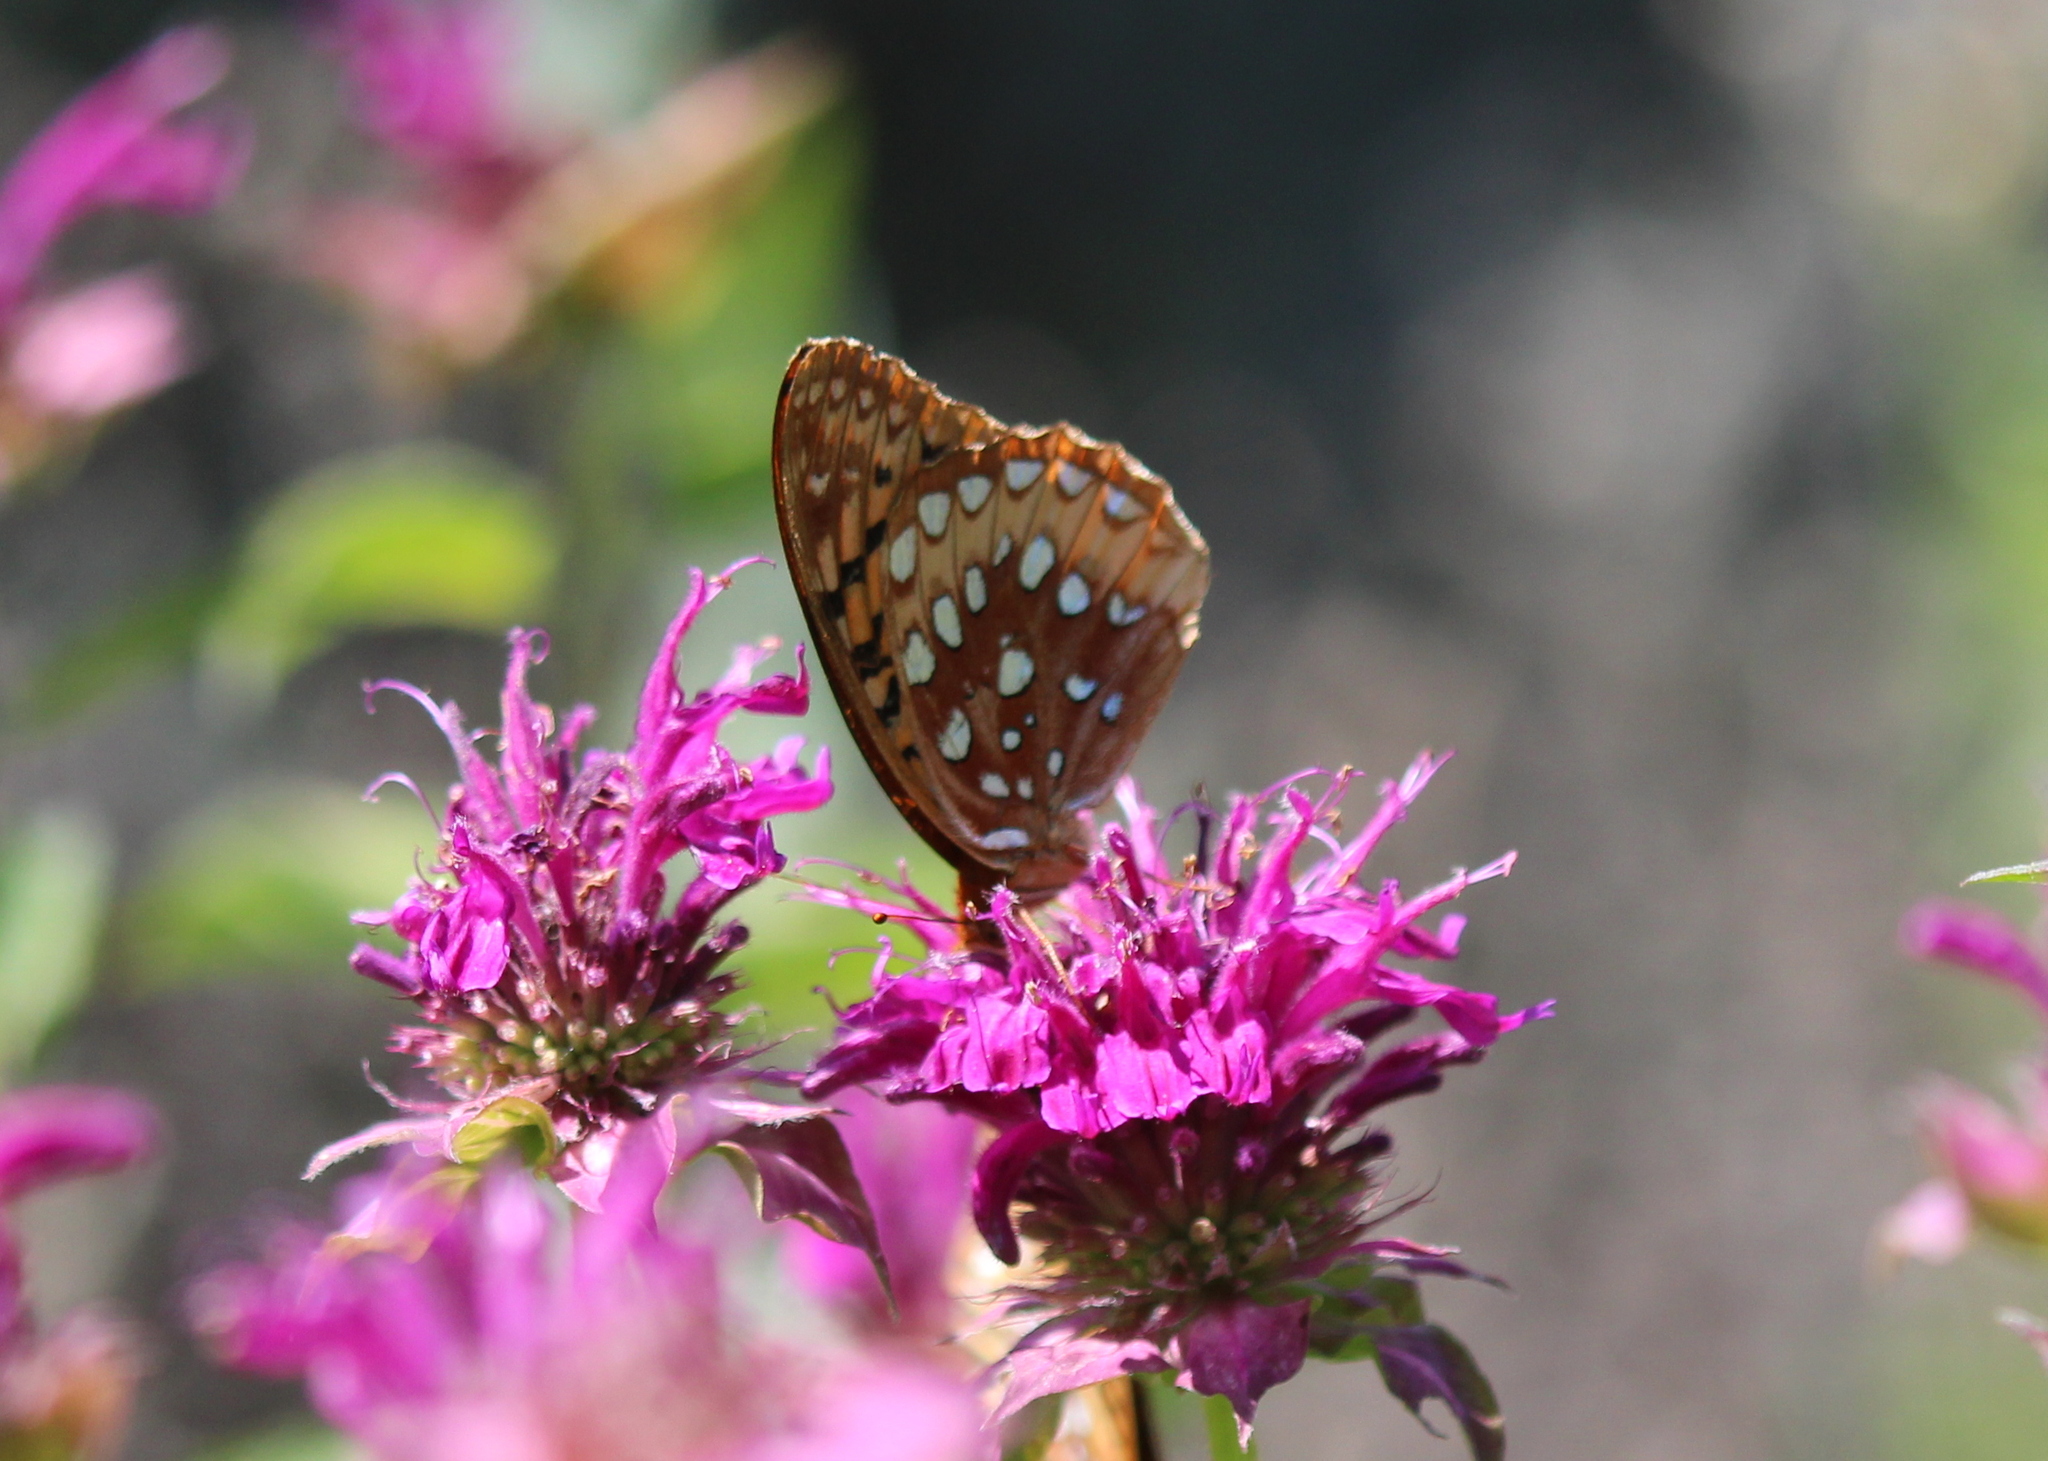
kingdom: Animalia
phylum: Arthropoda
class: Insecta
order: Lepidoptera
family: Nymphalidae
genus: Speyeria
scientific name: Speyeria cybele
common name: Great spangled fritillary
